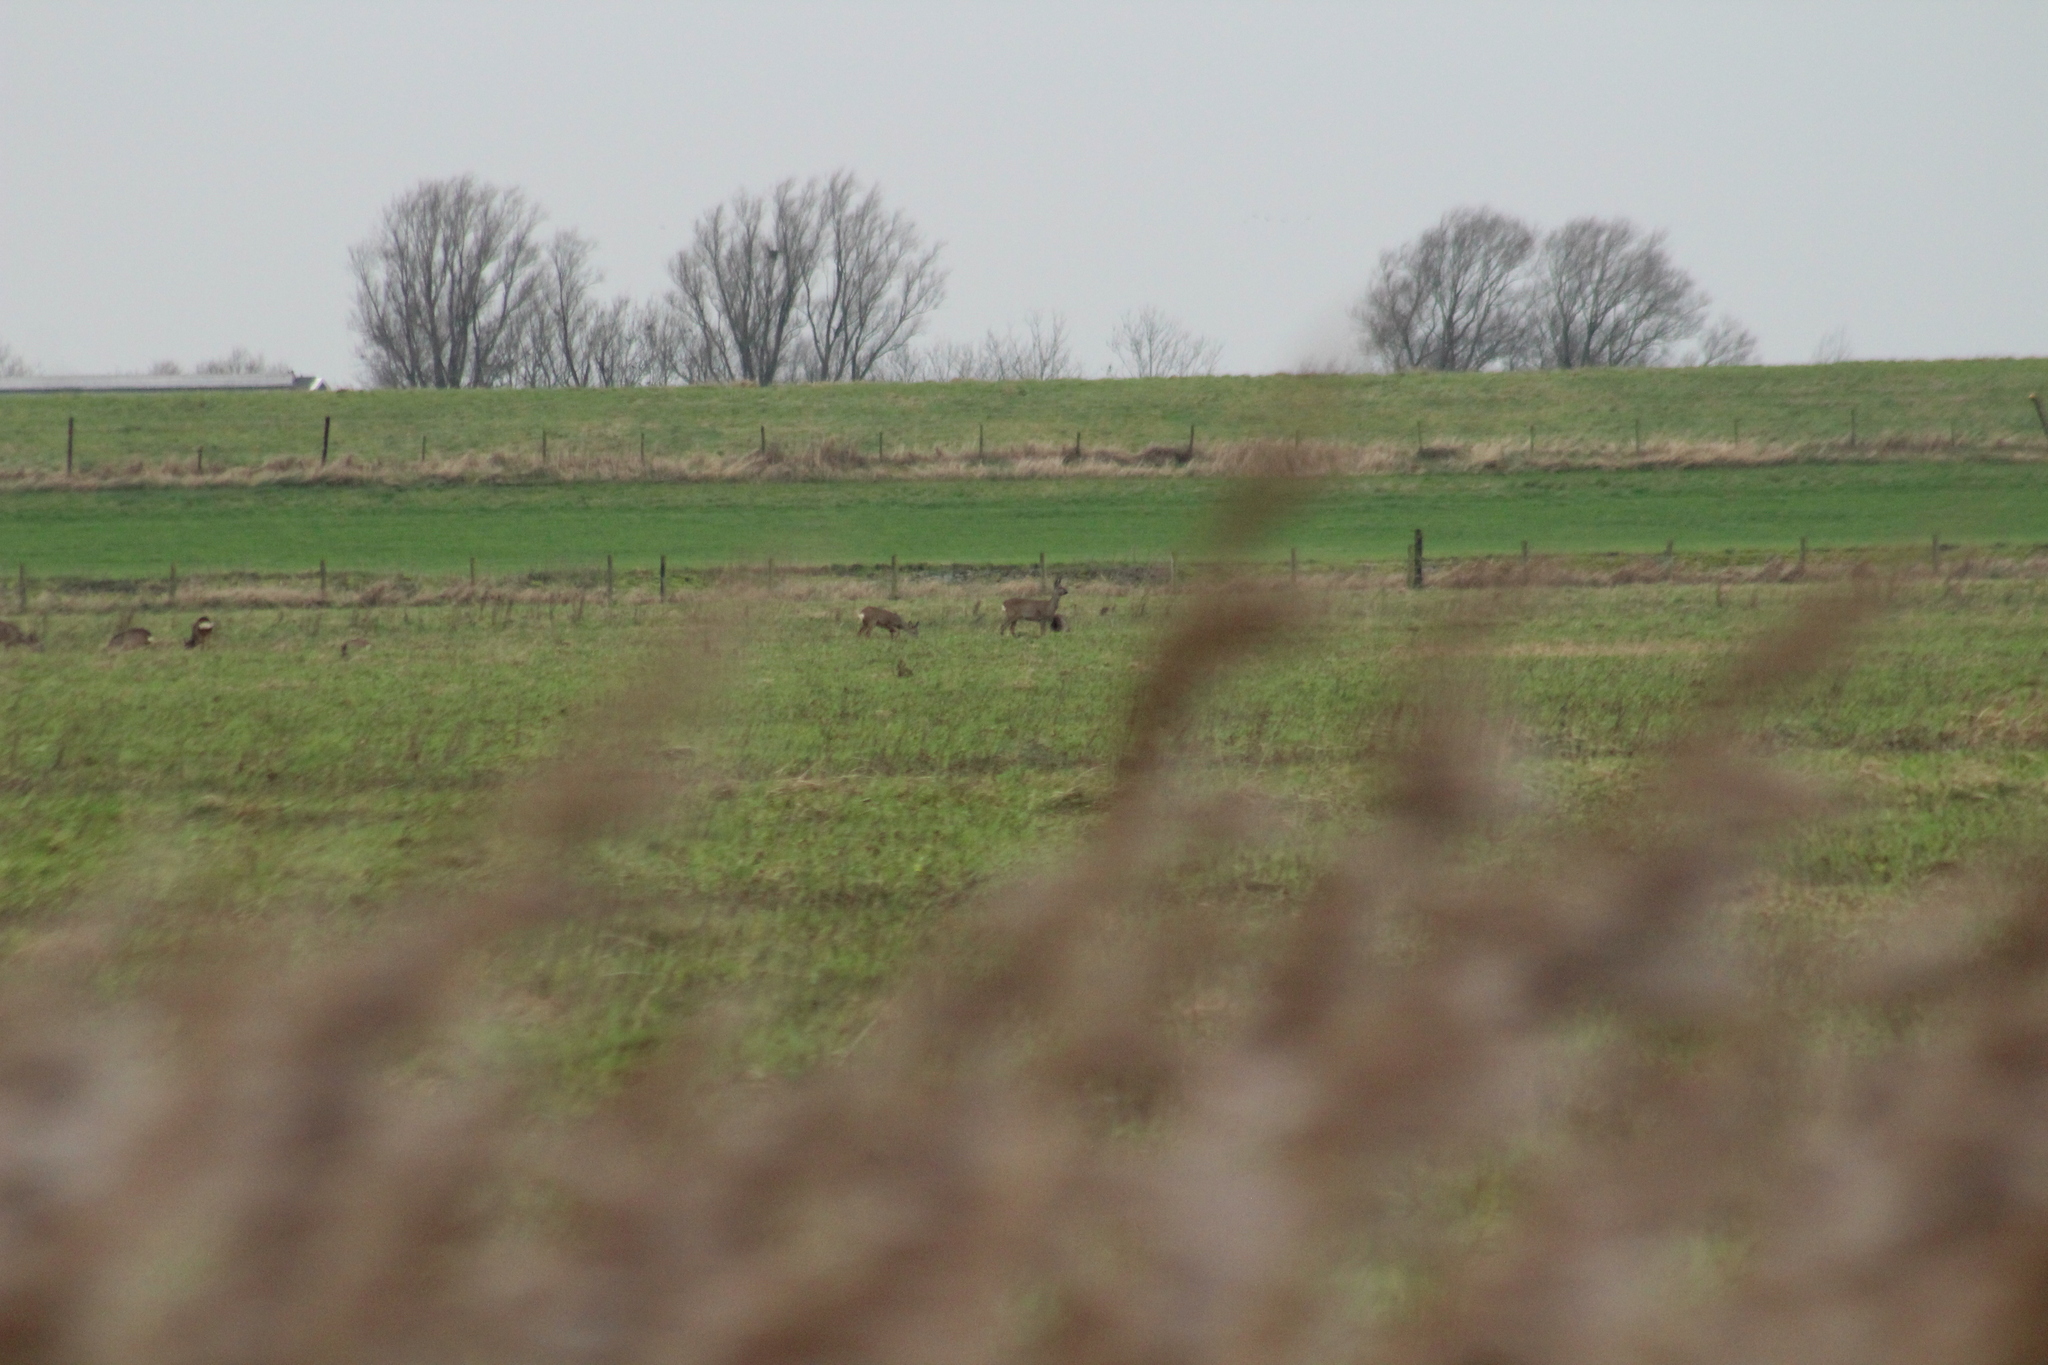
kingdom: Animalia
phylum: Chordata
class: Mammalia
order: Artiodactyla
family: Cervidae
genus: Capreolus
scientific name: Capreolus capreolus
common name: Western roe deer
